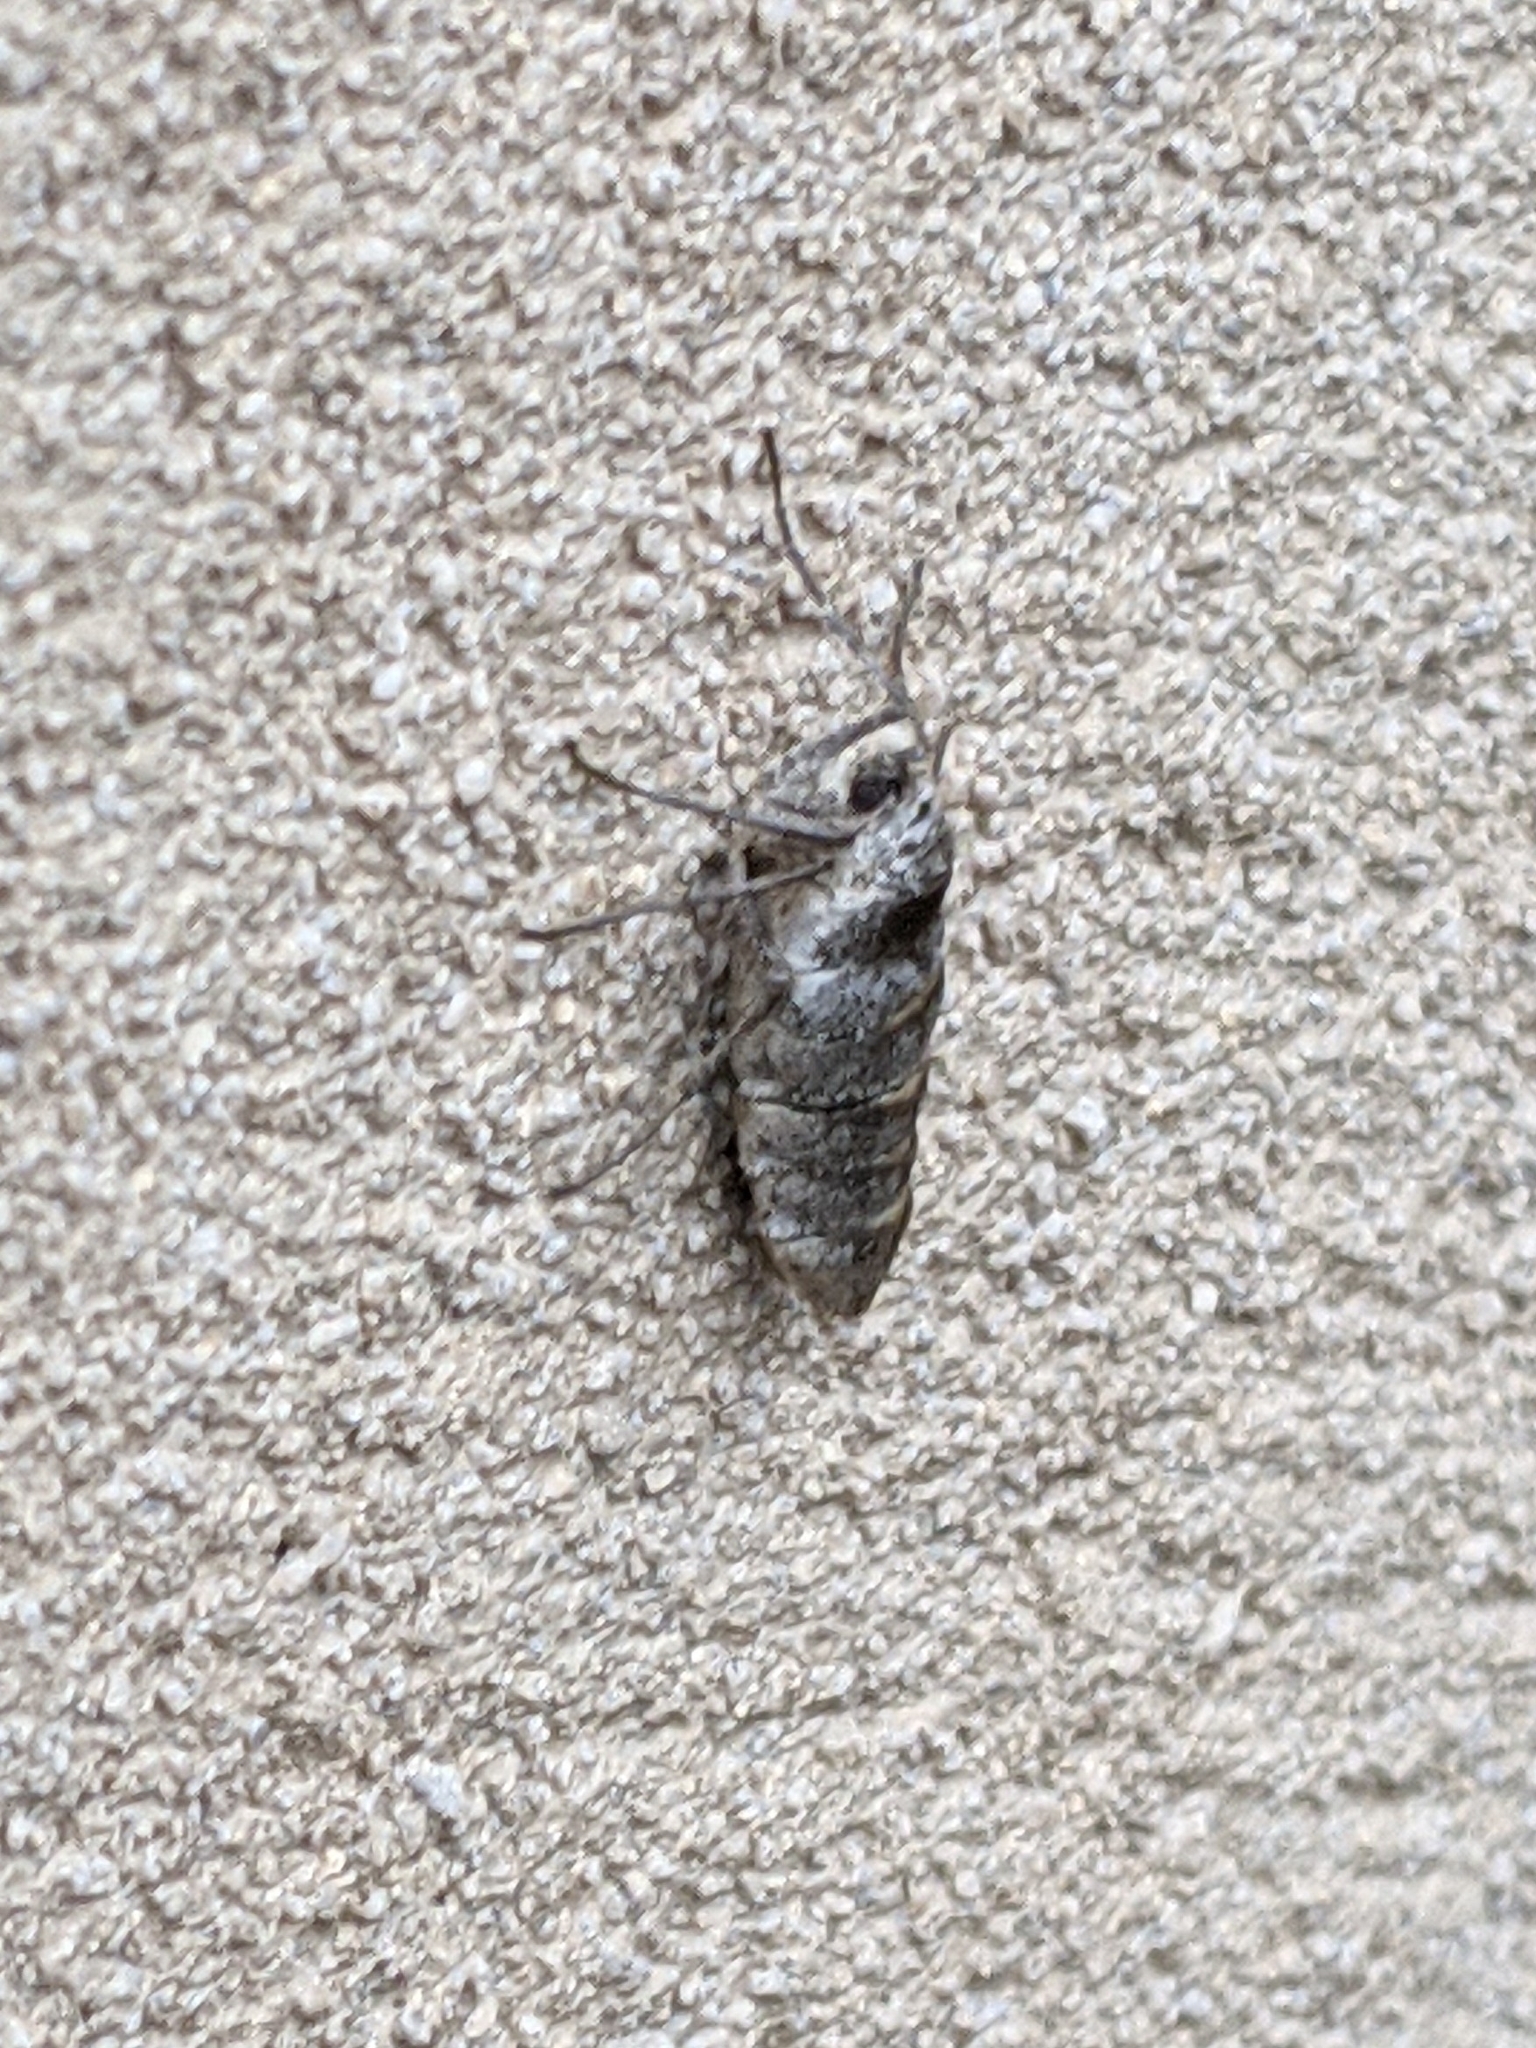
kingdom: Animalia
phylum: Arthropoda
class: Insecta
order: Lepidoptera
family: Geometridae
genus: Alsophila
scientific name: Alsophila pometaria
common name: Fall cankerworm
